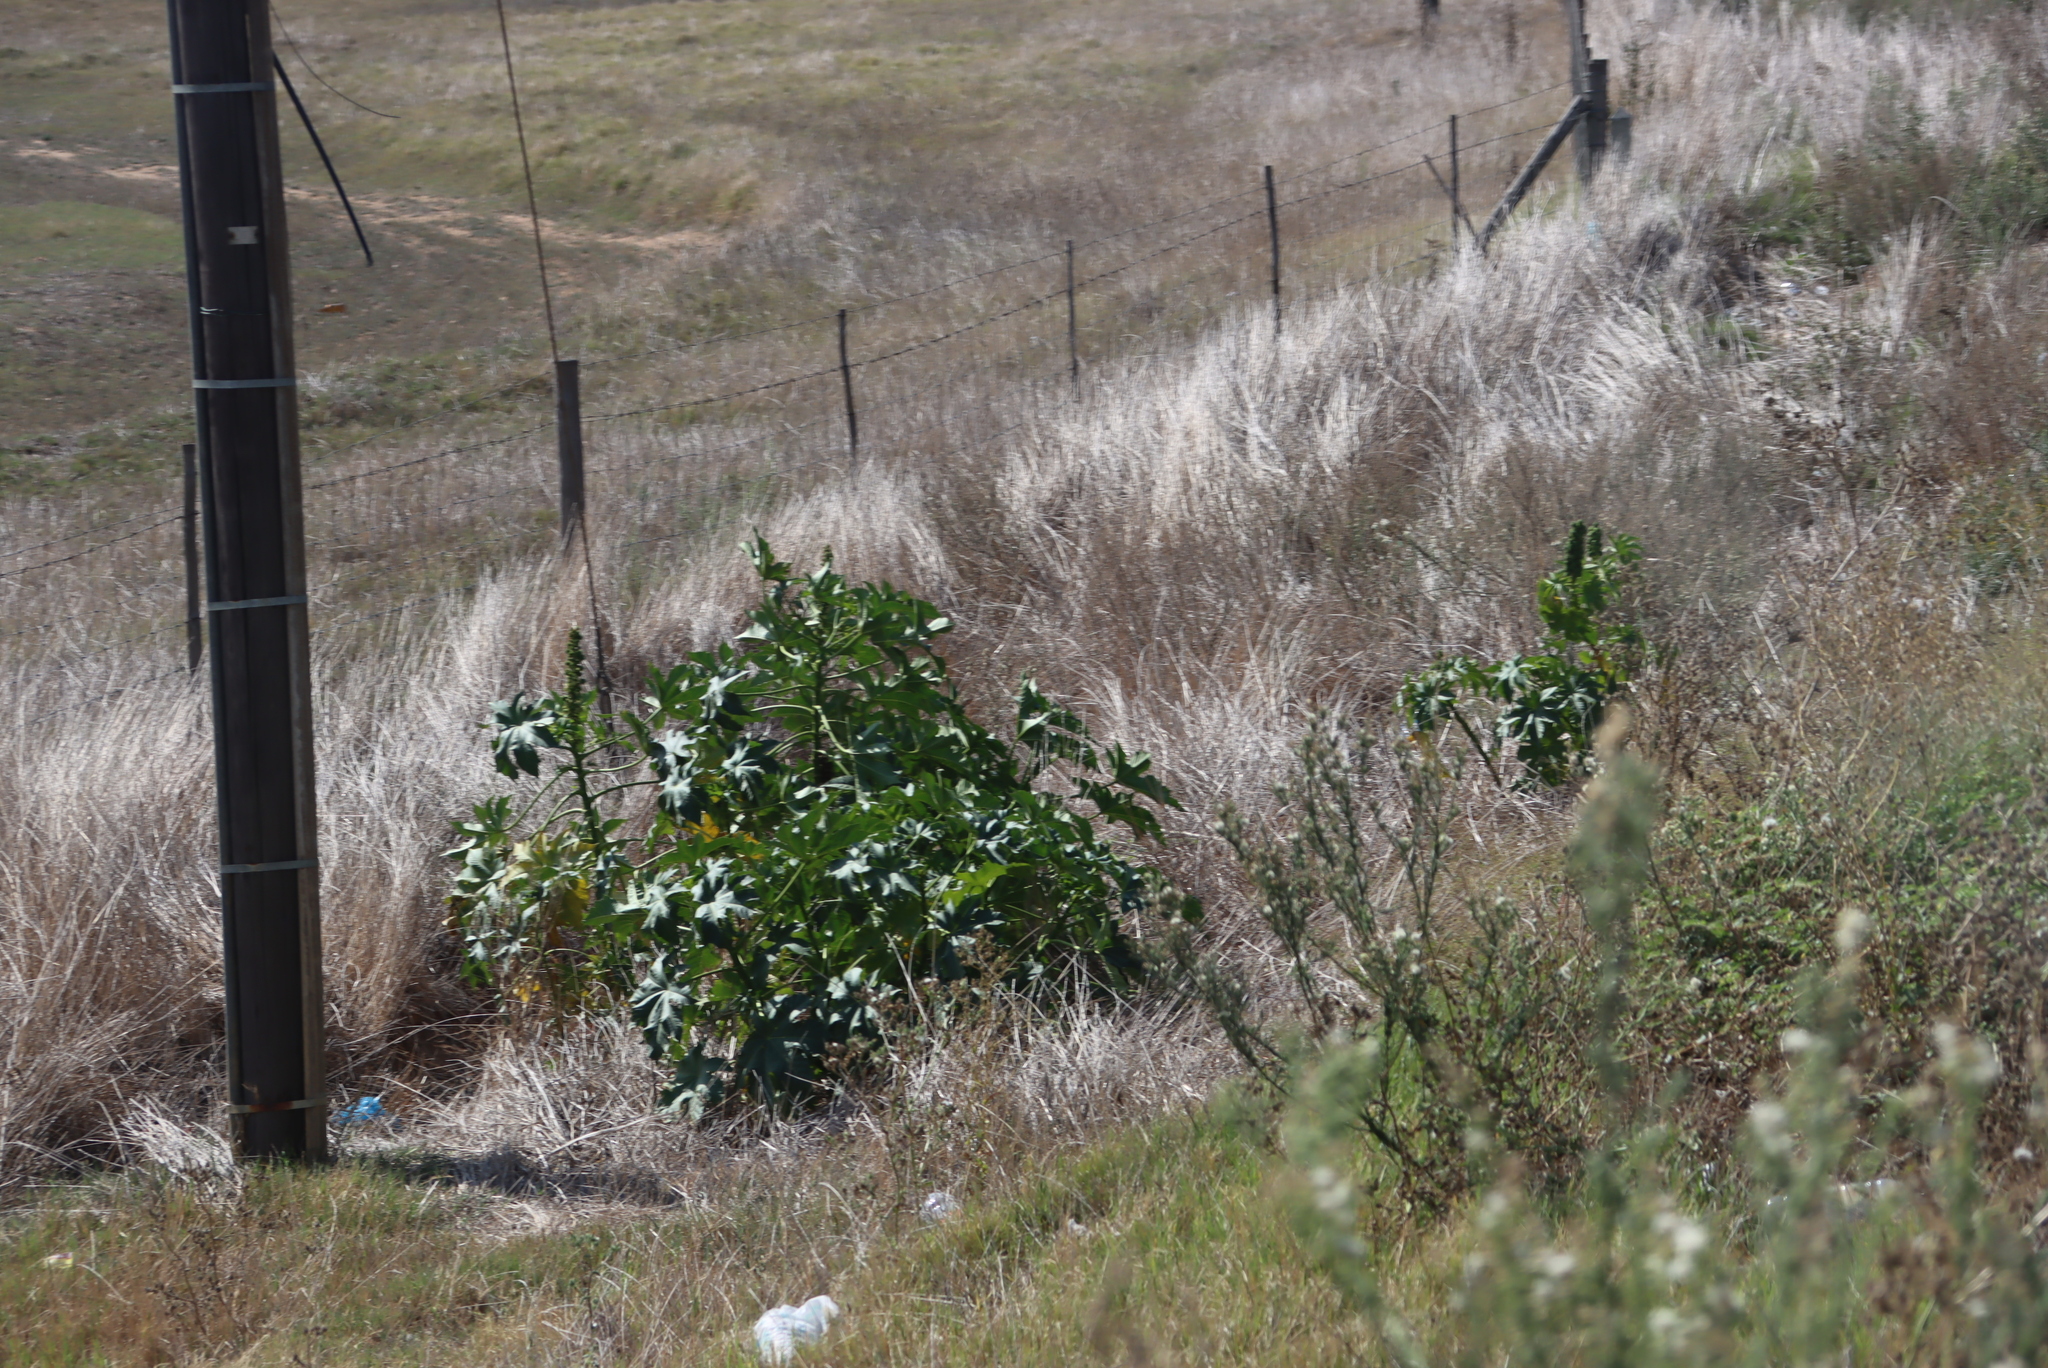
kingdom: Plantae
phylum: Tracheophyta
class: Magnoliopsida
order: Malpighiales
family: Euphorbiaceae
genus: Ricinus
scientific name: Ricinus communis
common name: Castor-oil-plant
